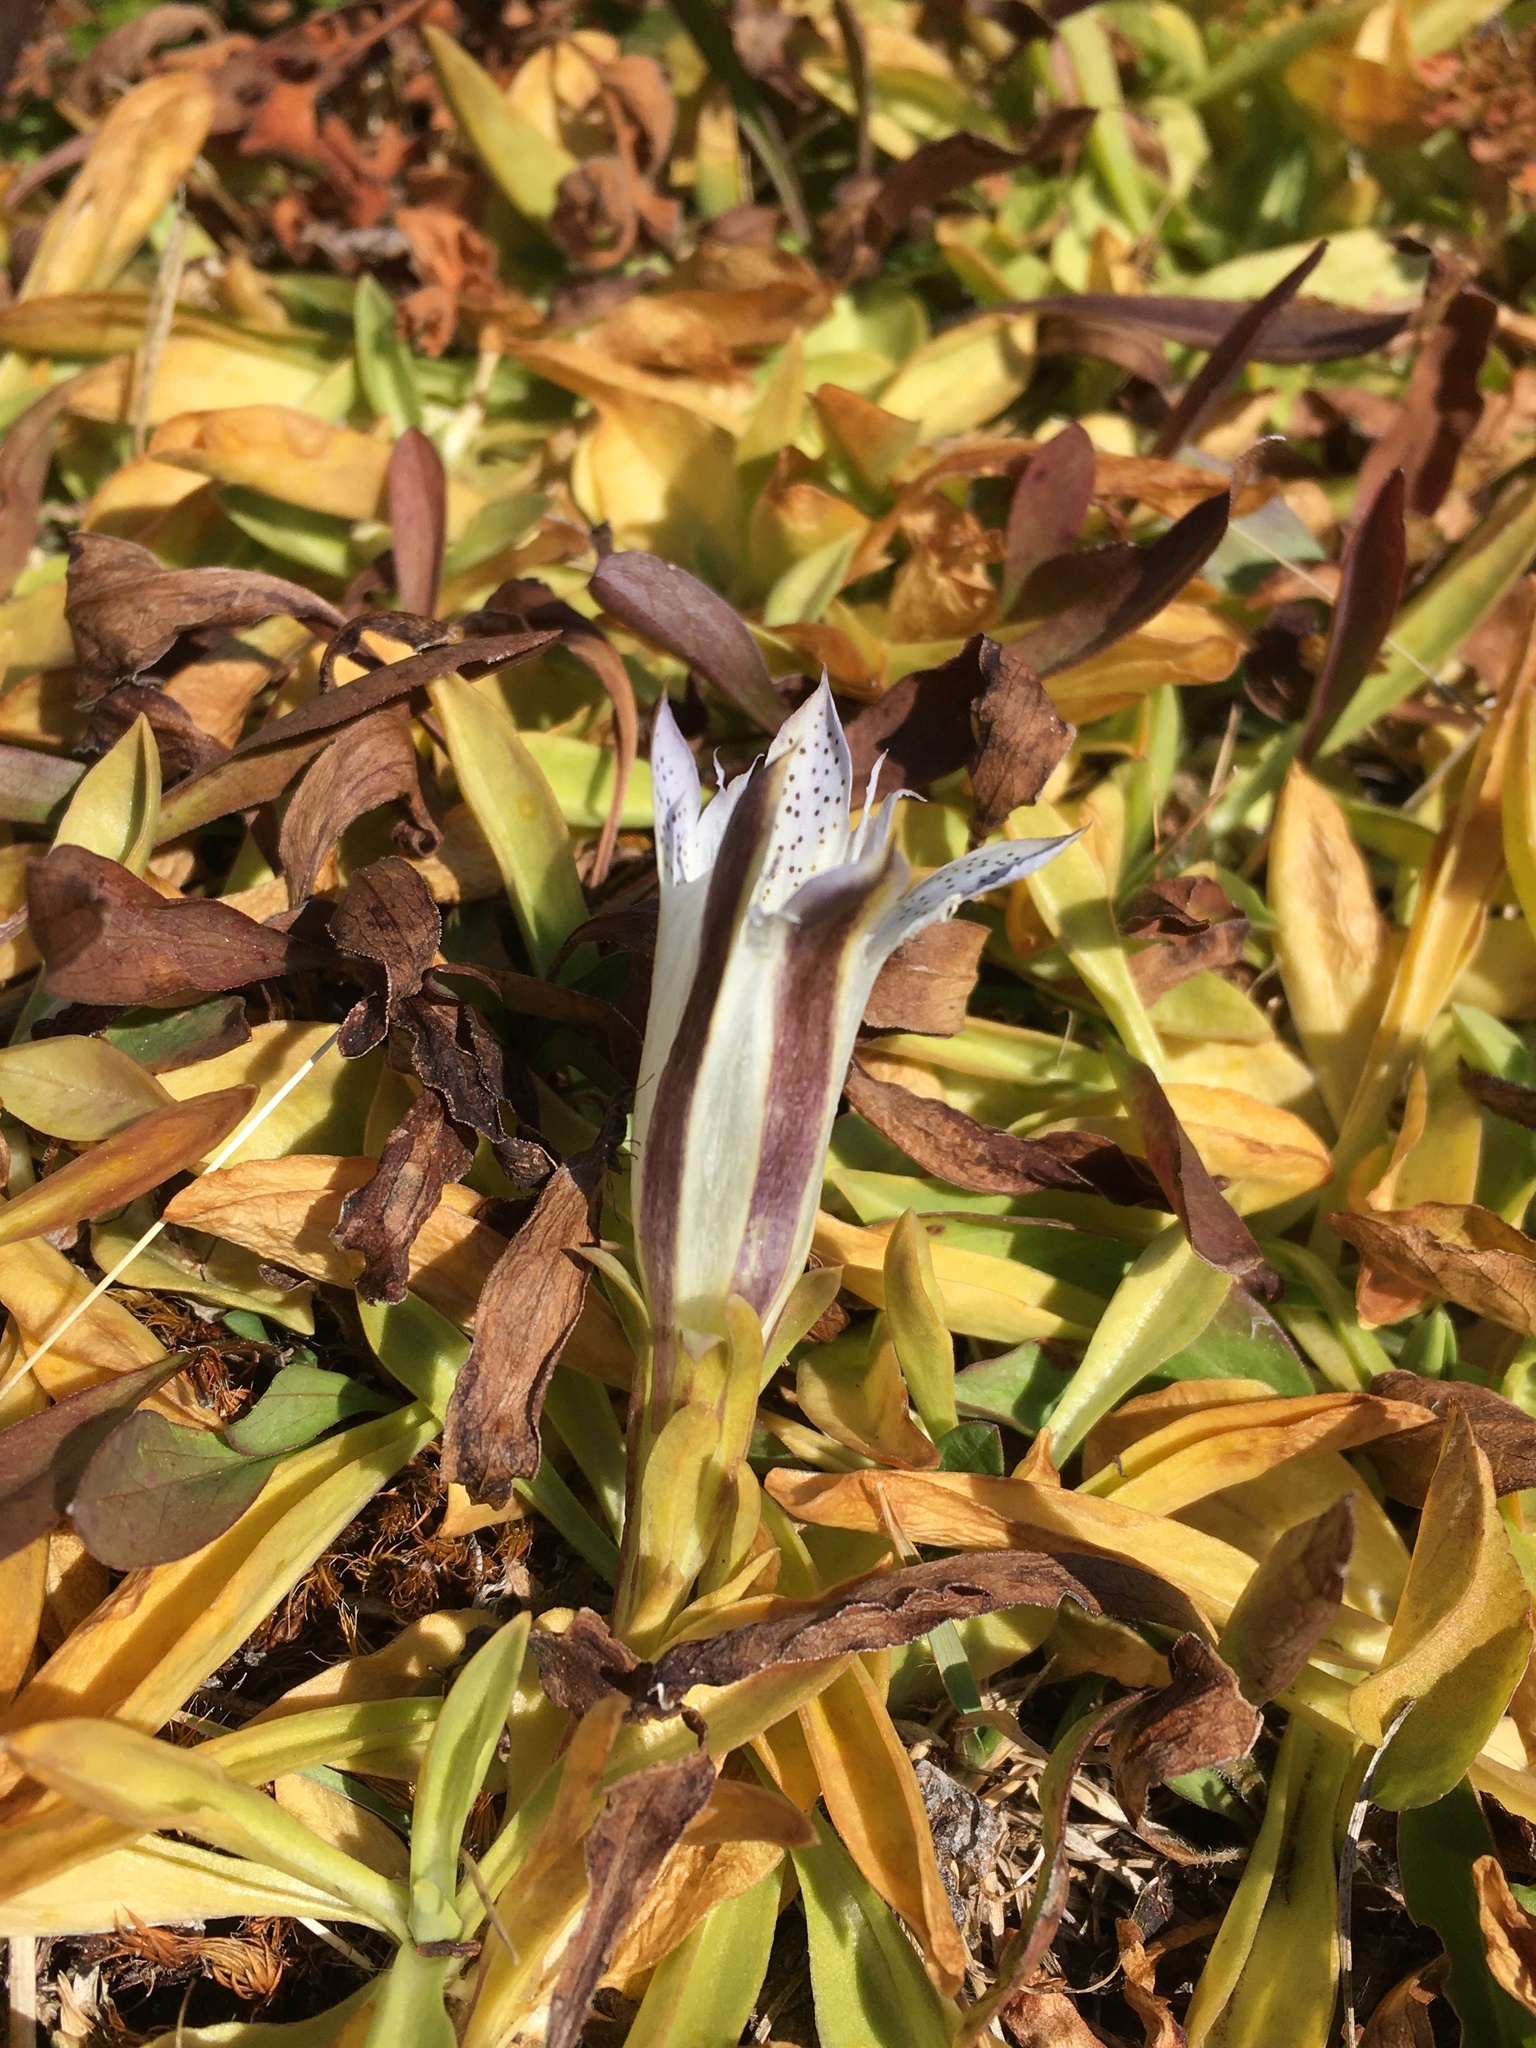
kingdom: Plantae
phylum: Tracheophyta
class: Magnoliopsida
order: Gentianales
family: Gentianaceae
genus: Gentiana
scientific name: Gentiana newberryi
